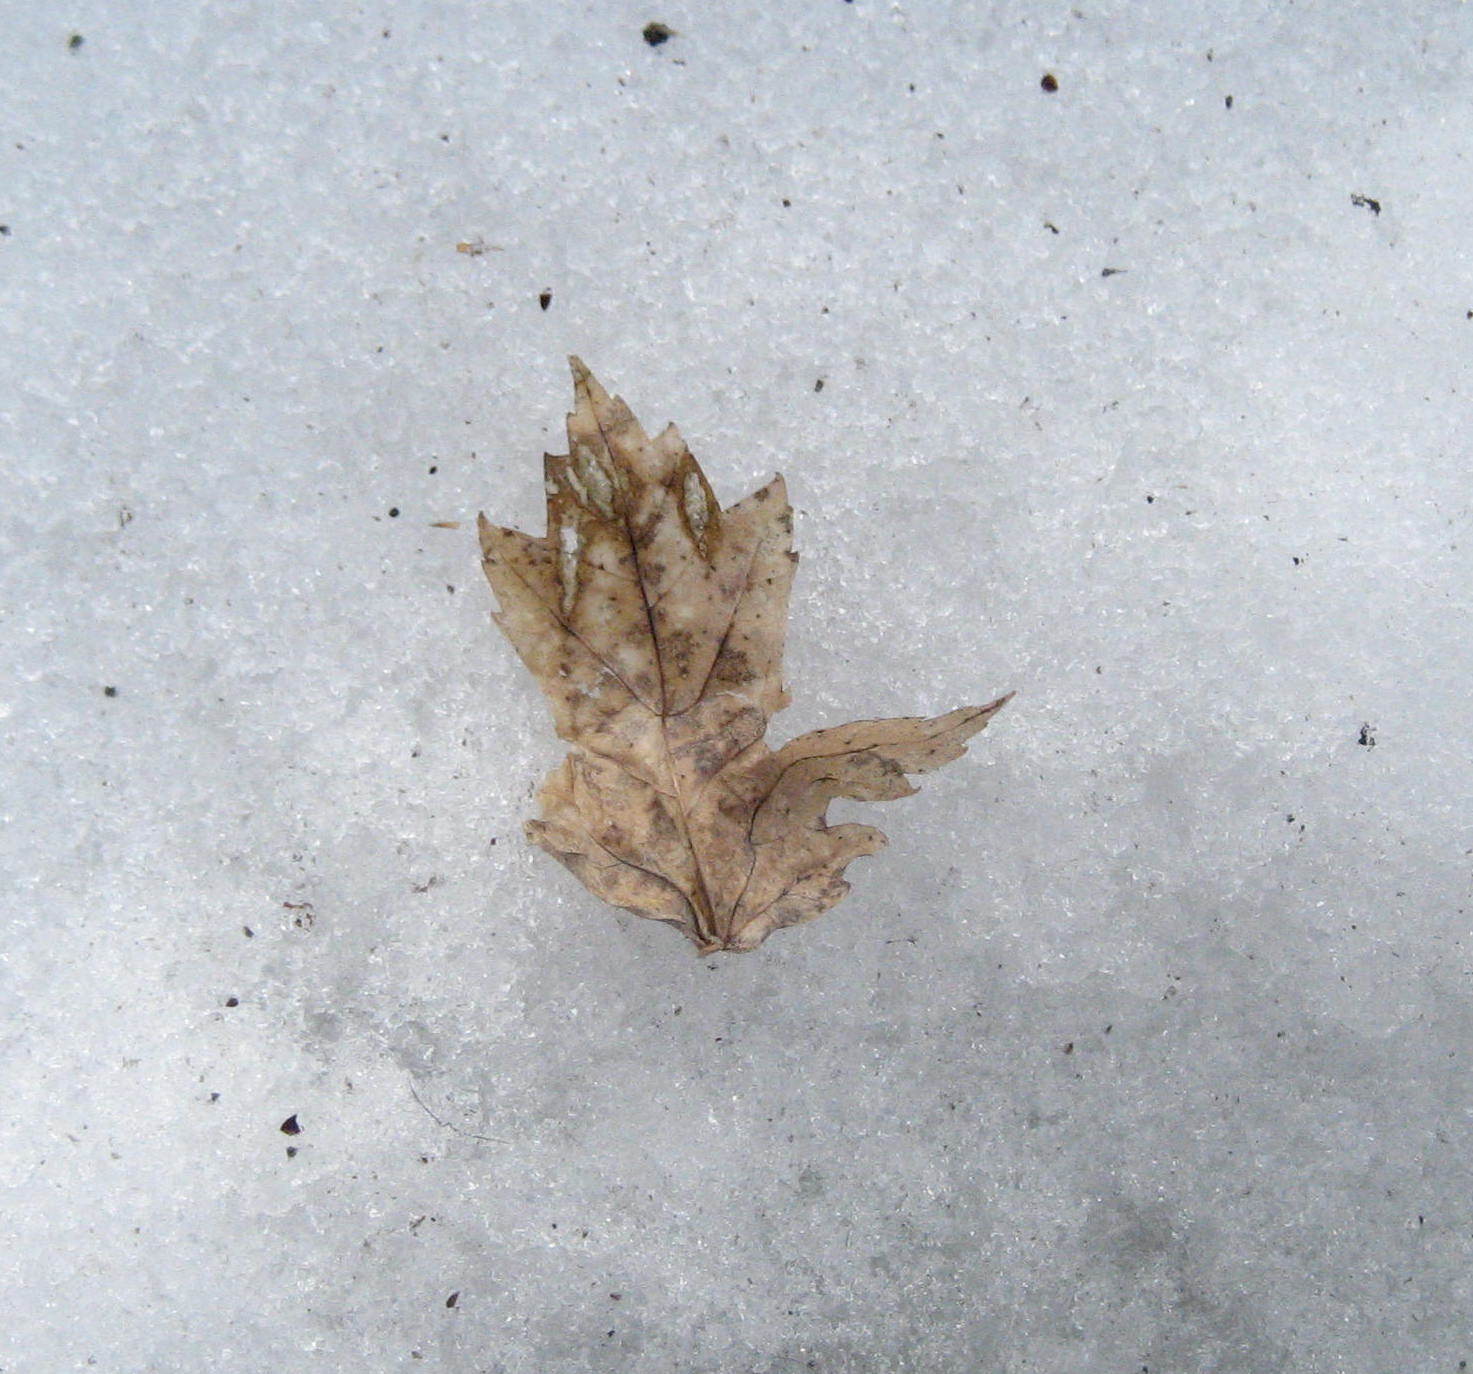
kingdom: Plantae
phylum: Tracheophyta
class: Magnoliopsida
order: Sapindales
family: Sapindaceae
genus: Acer
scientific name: Acer freemanii
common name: Freeman maple
